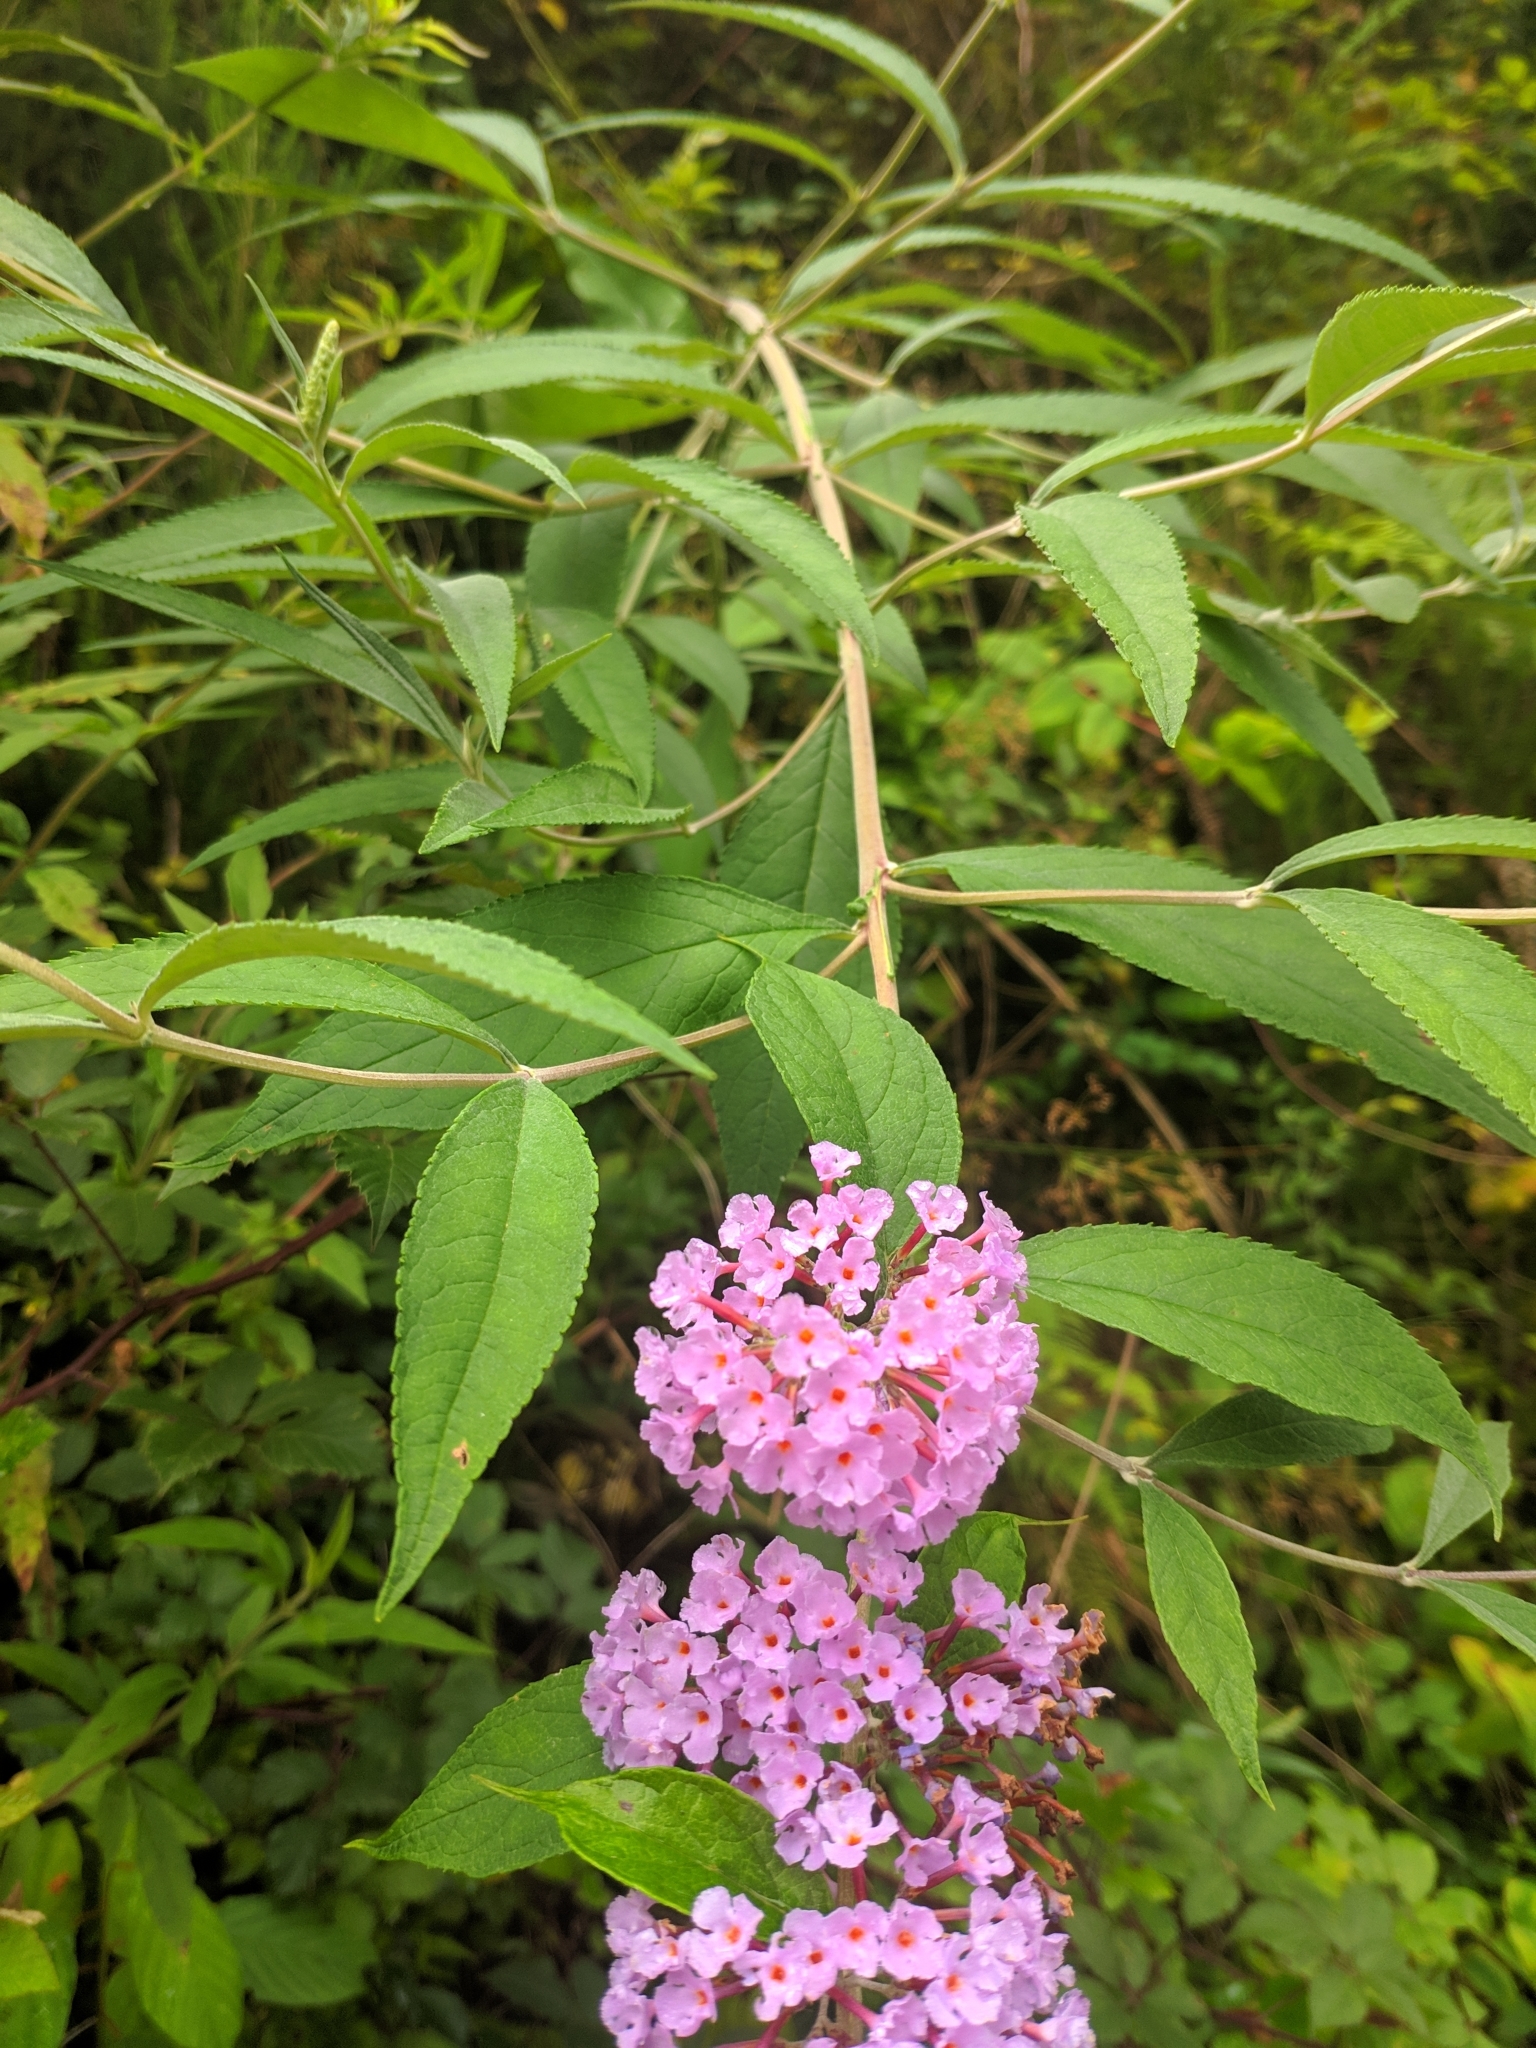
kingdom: Plantae
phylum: Tracheophyta
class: Magnoliopsida
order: Lamiales
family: Scrophulariaceae
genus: Buddleja
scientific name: Buddleja davidii
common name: Butterfly-bush
